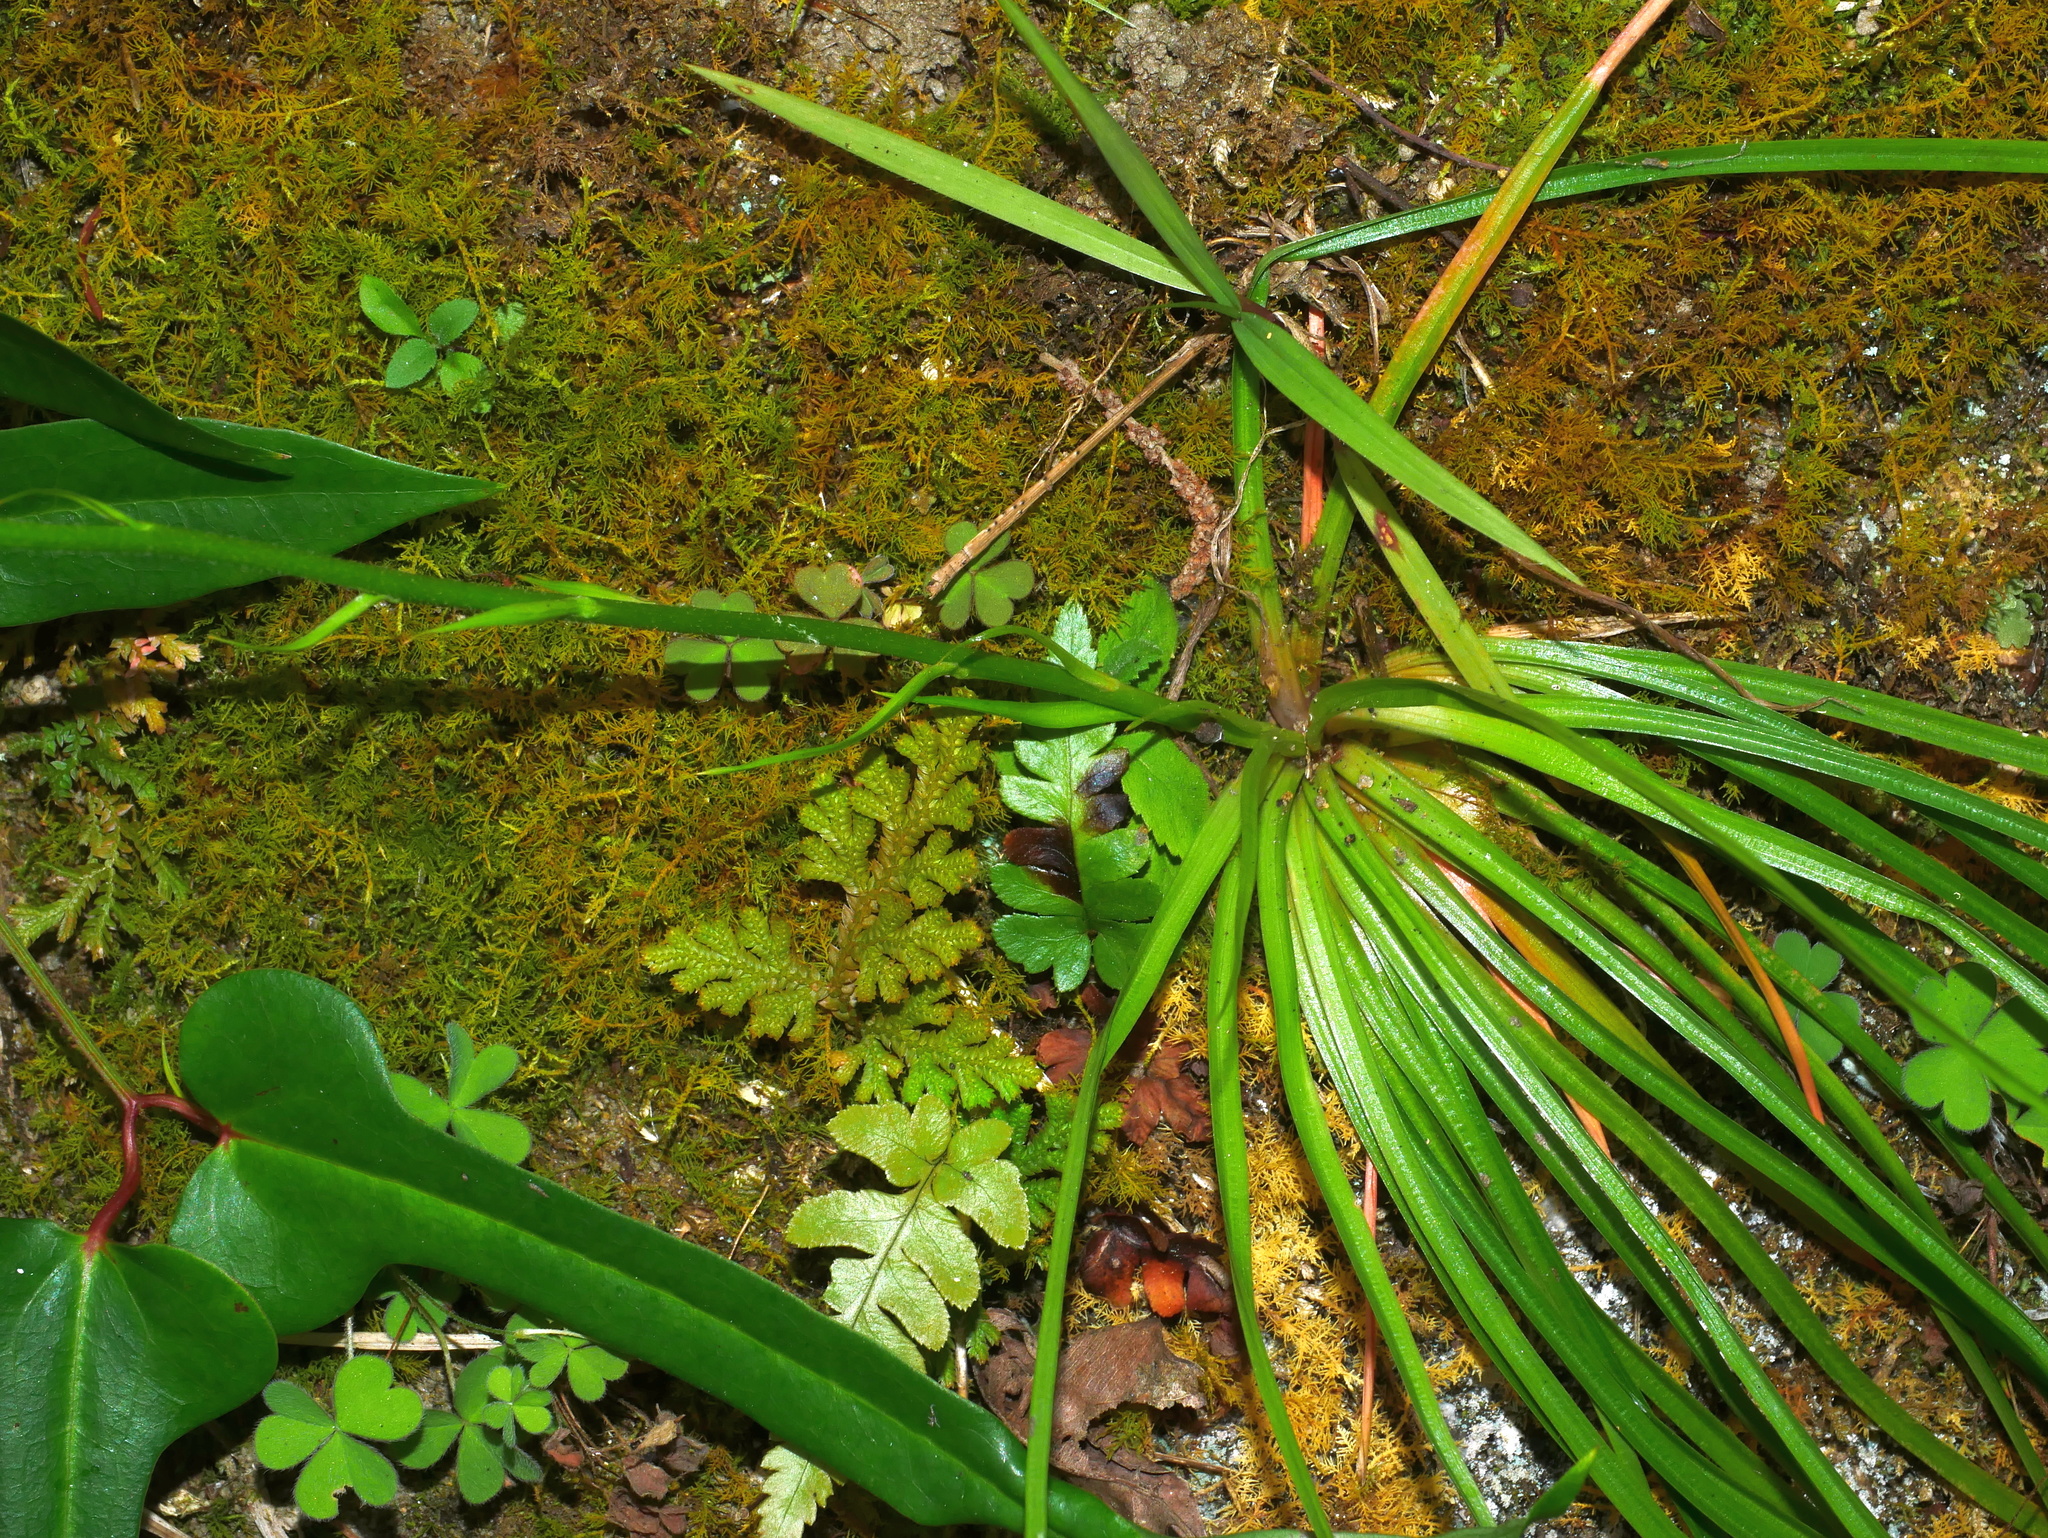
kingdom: Plantae
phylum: Tracheophyta
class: Liliopsida
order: Dioscoreales
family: Nartheciaceae
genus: Aletris
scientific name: Aletris spicata
